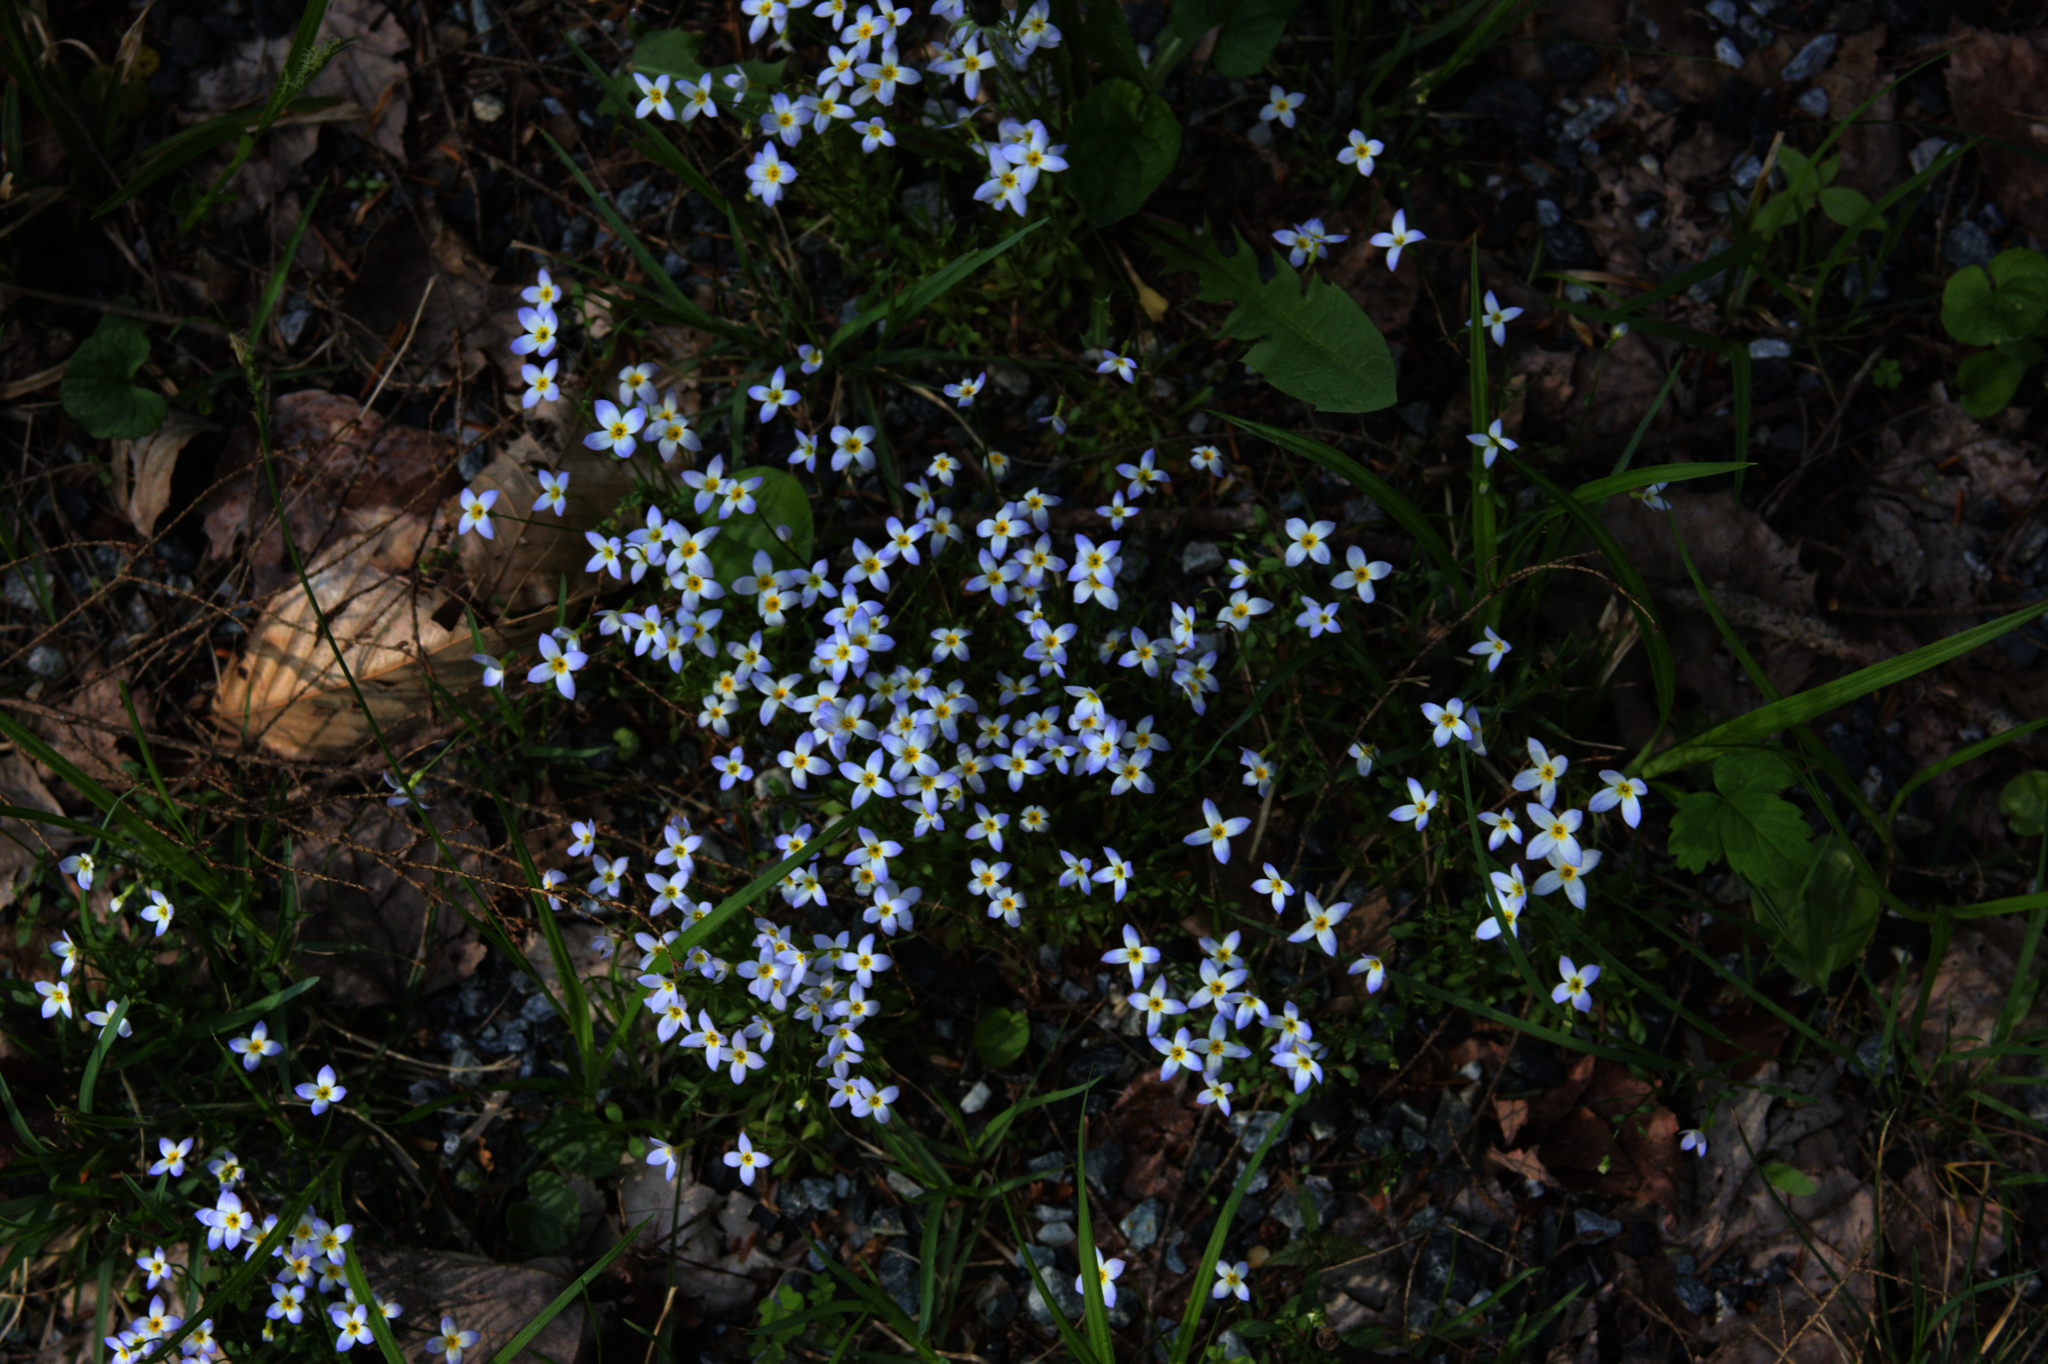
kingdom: Plantae
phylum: Tracheophyta
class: Magnoliopsida
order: Gentianales
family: Rubiaceae
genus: Houstonia
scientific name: Houstonia caerulea
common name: Bluets
